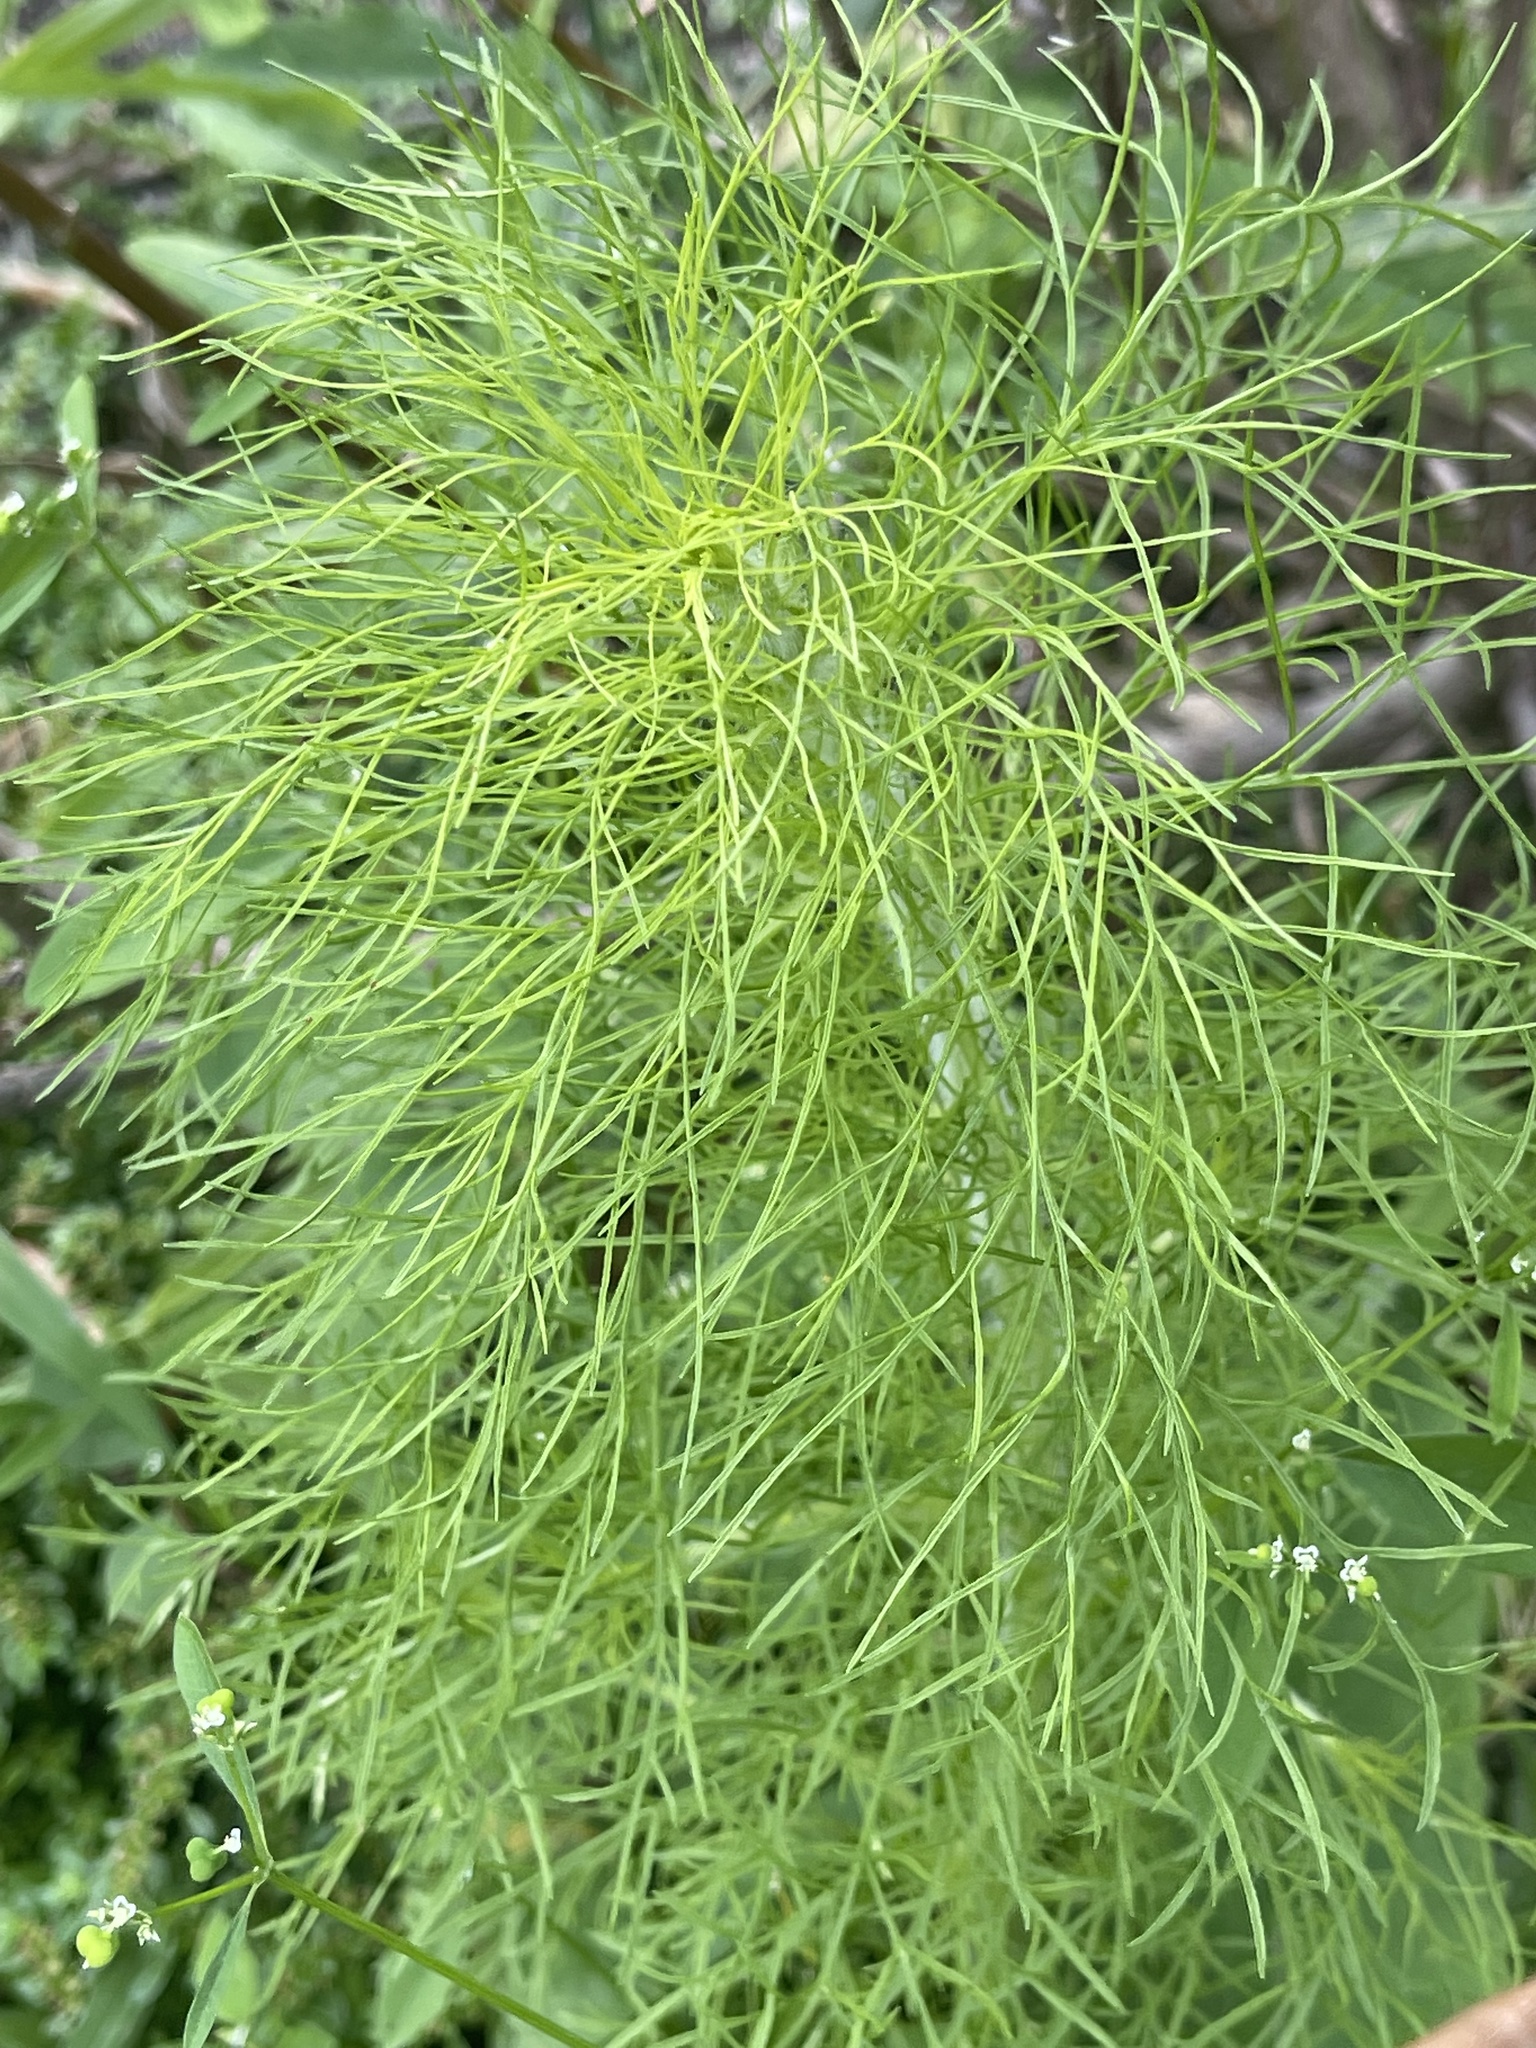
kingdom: Plantae
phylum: Tracheophyta
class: Magnoliopsida
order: Asterales
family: Asteraceae
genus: Eupatorium
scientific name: Eupatorium capillifolium
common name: Dog-fennel
